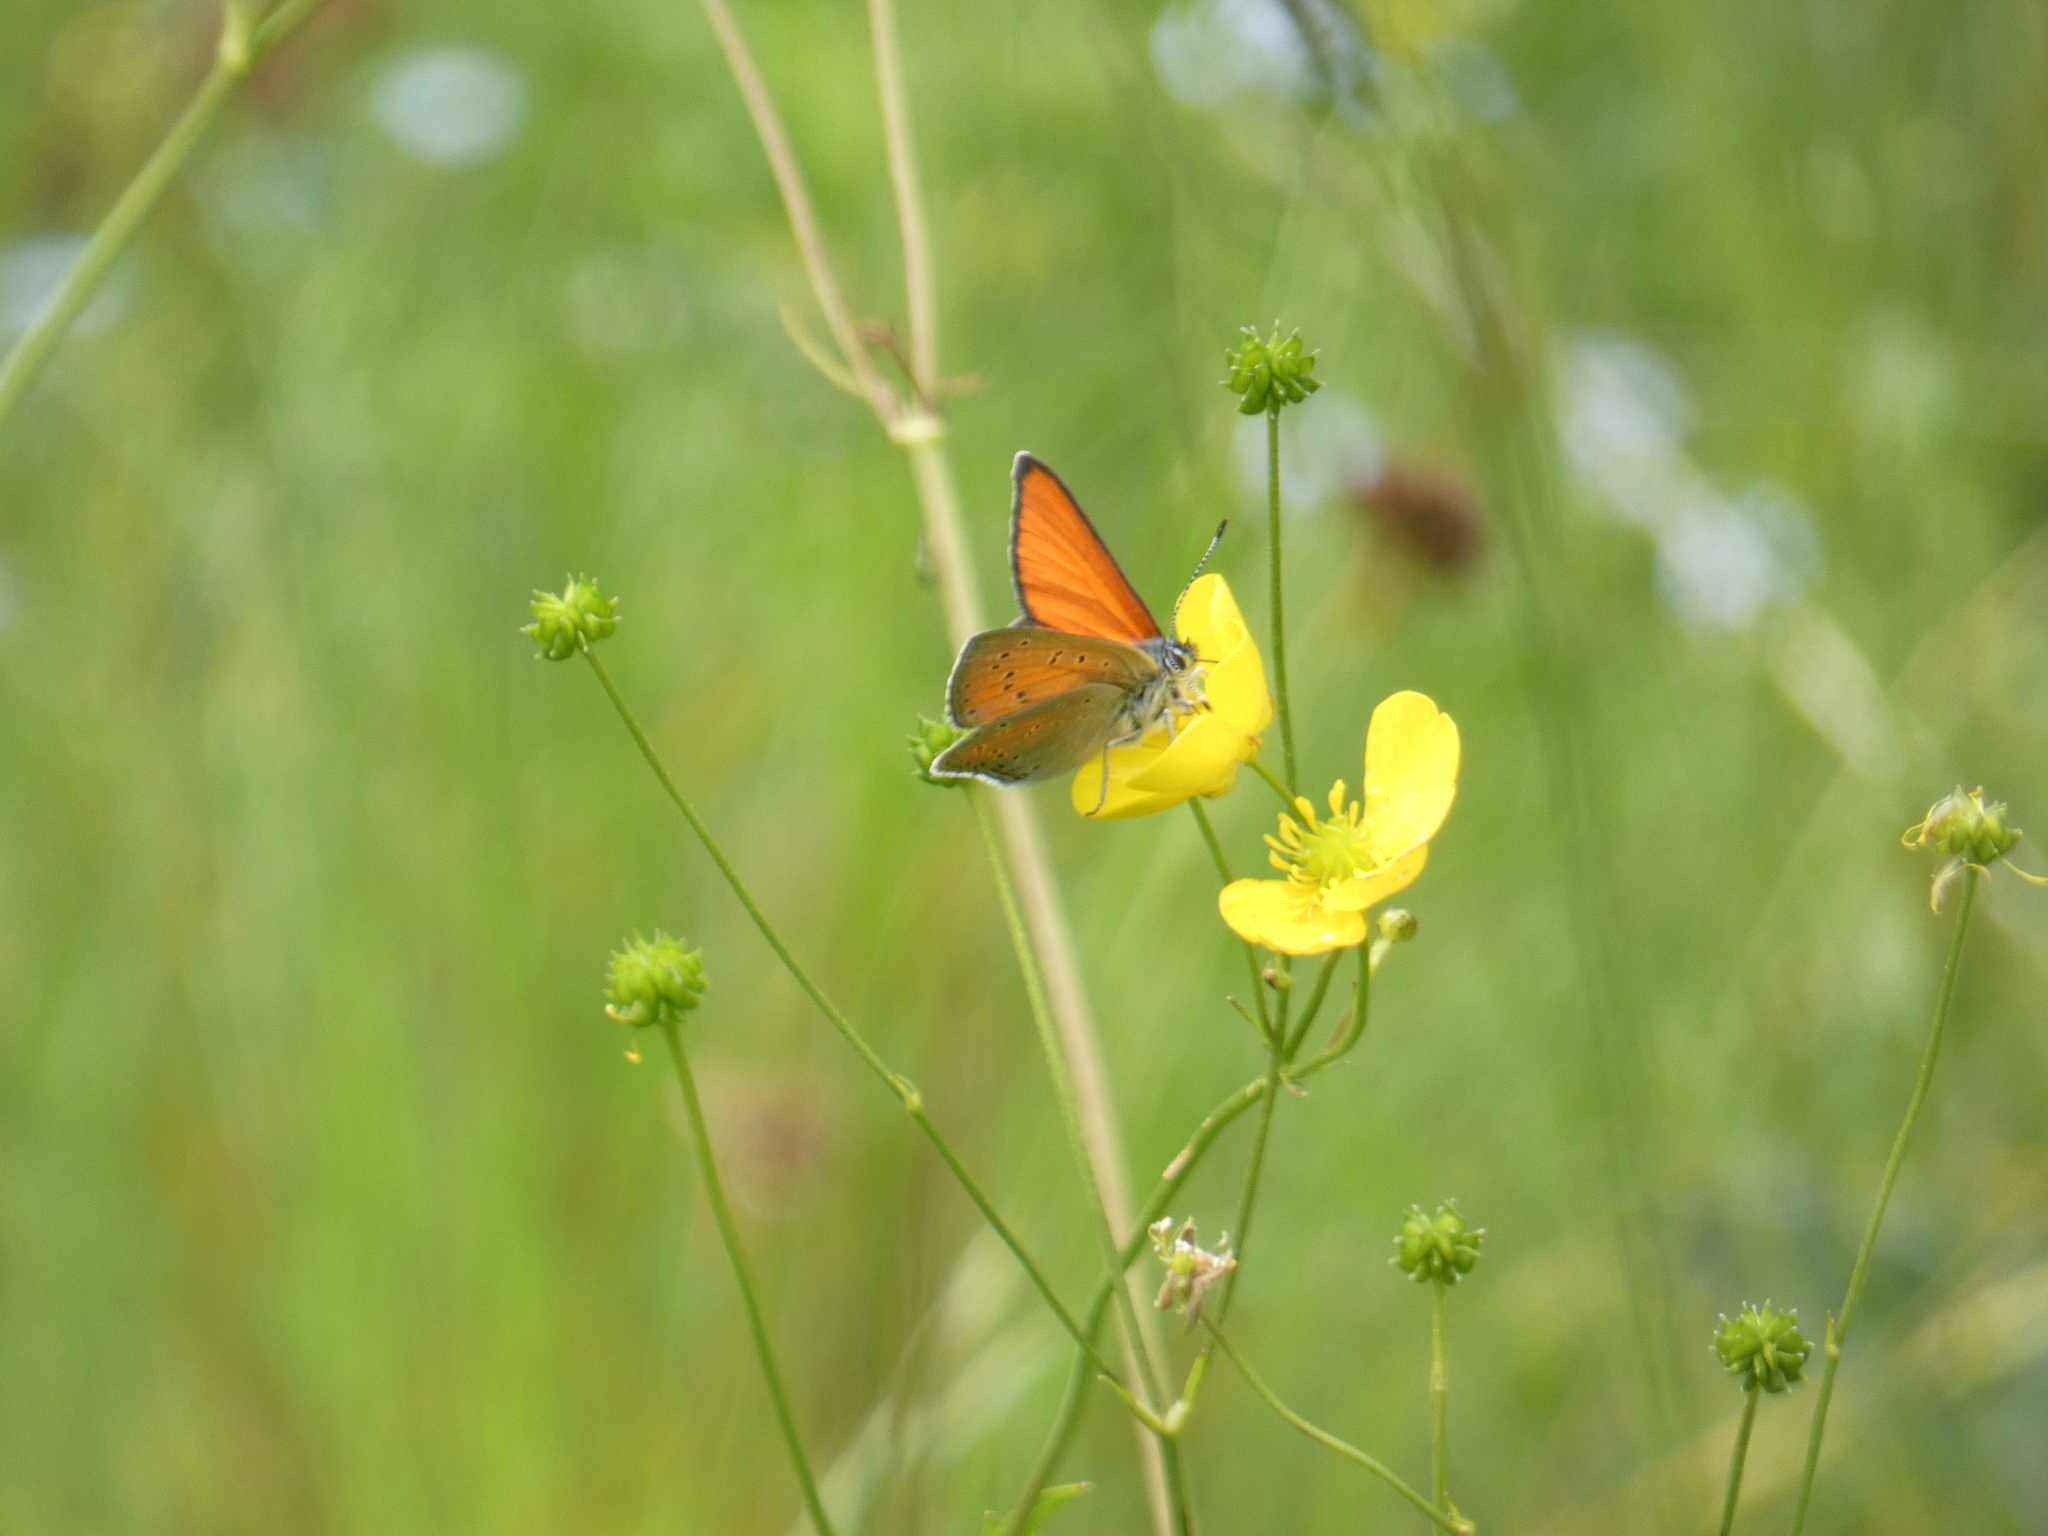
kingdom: Animalia
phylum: Arthropoda
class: Insecta
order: Lepidoptera
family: Lycaenidae
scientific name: Lycaenidae
